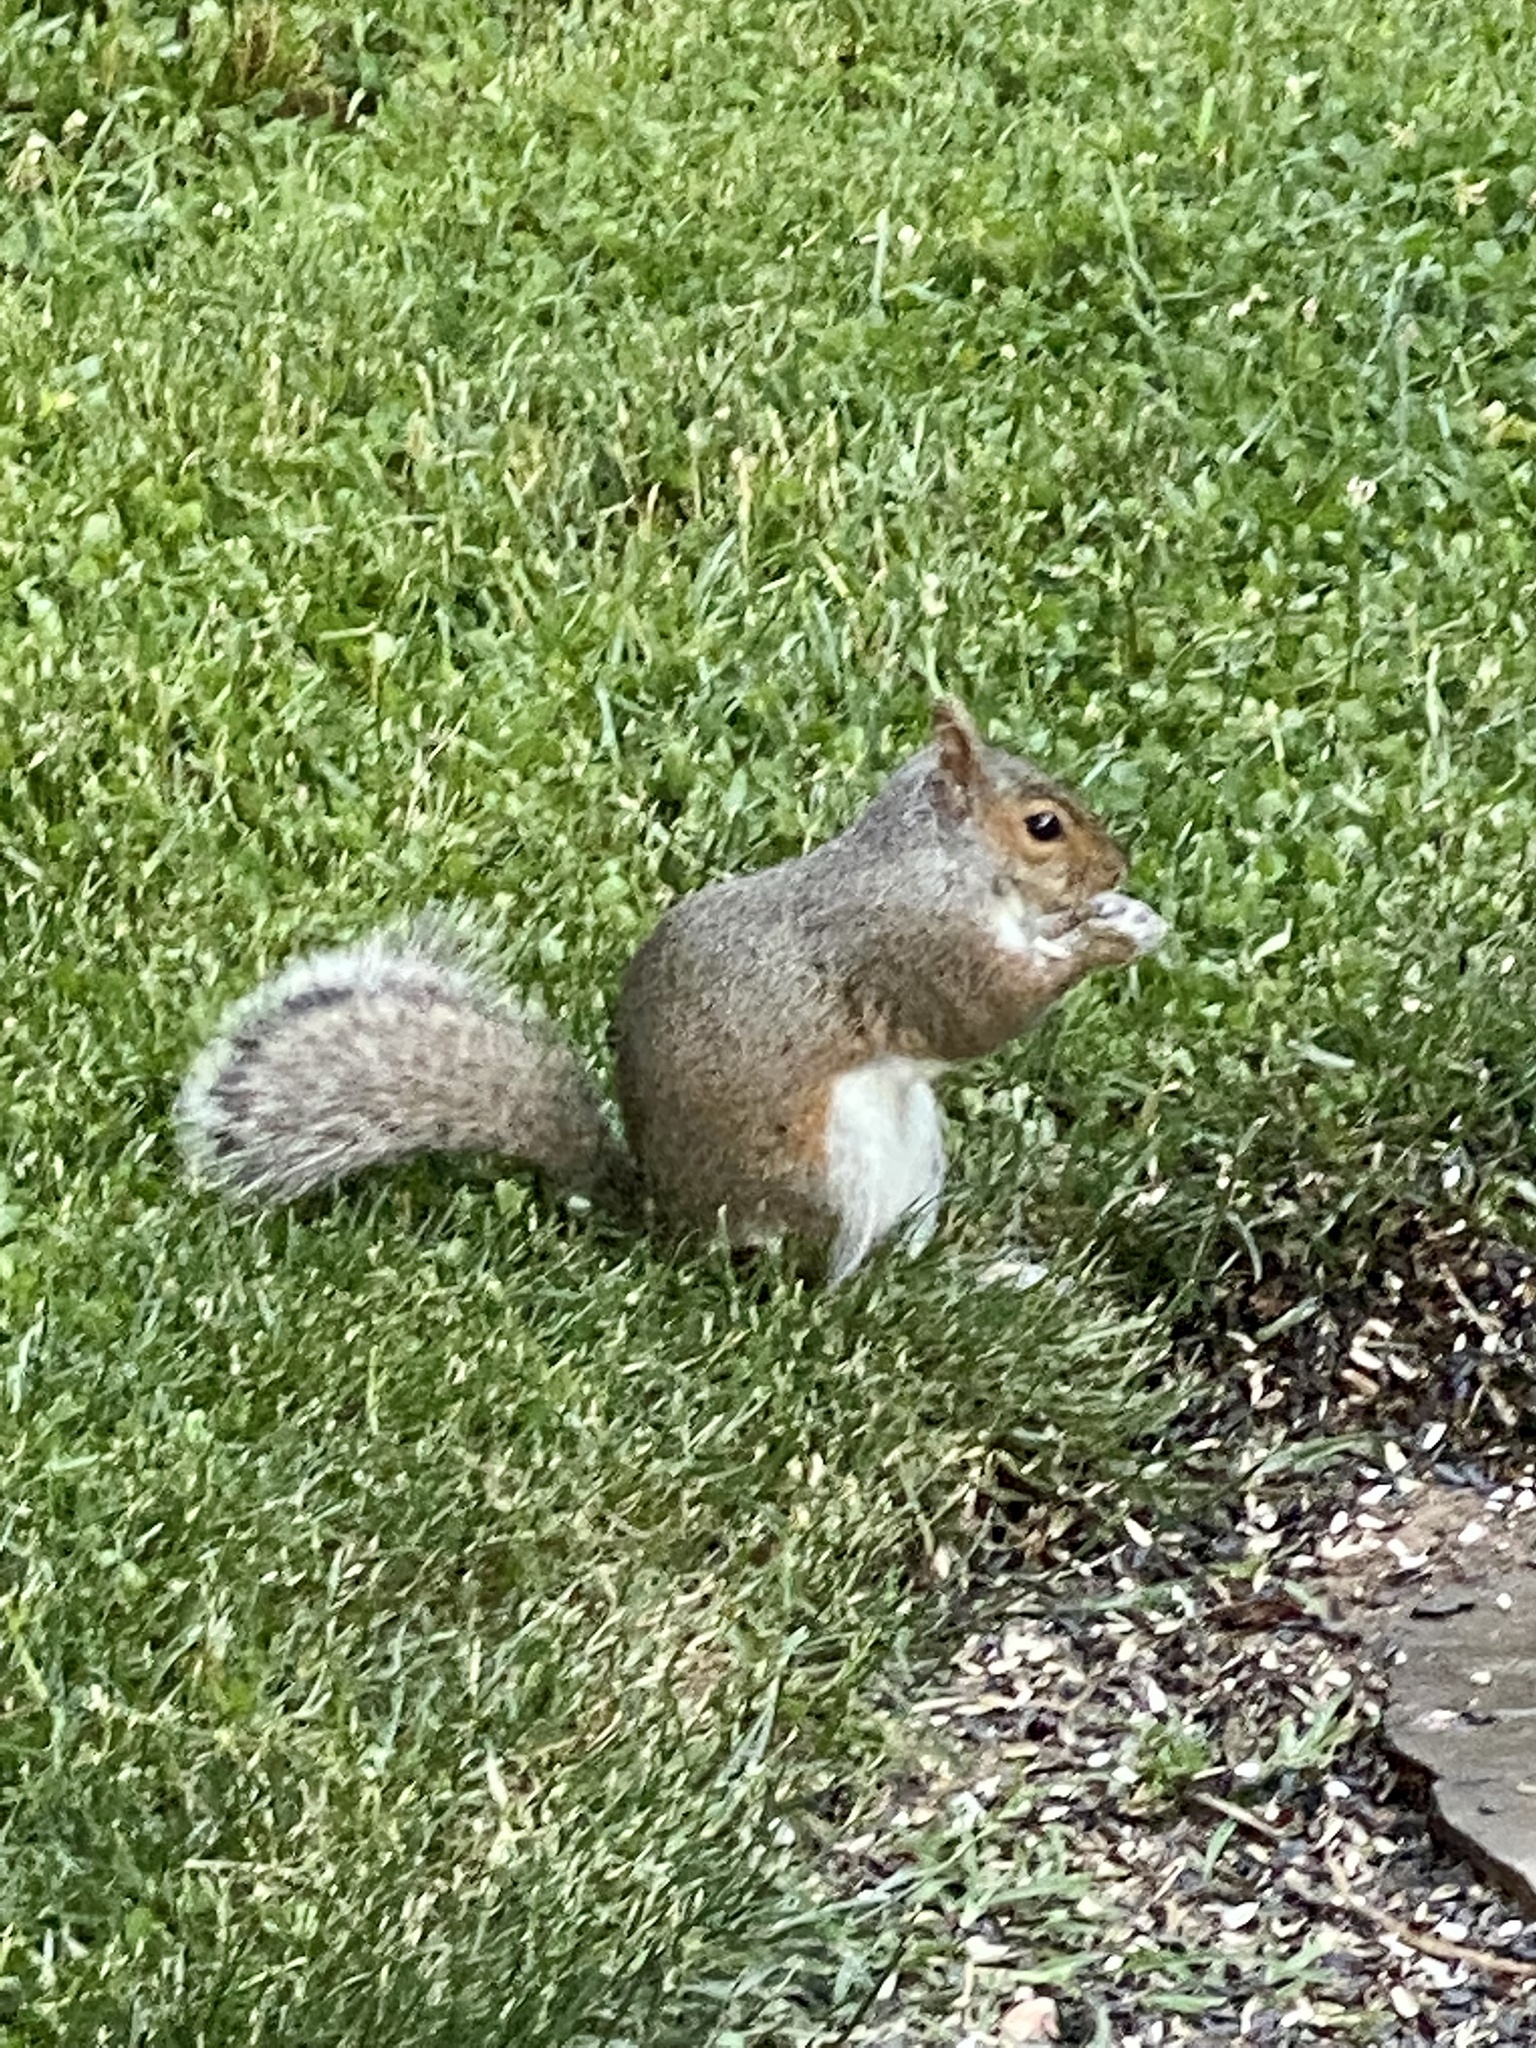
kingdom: Animalia
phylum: Chordata
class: Mammalia
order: Rodentia
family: Sciuridae
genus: Sciurus
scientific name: Sciurus carolinensis
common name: Eastern gray squirrel
